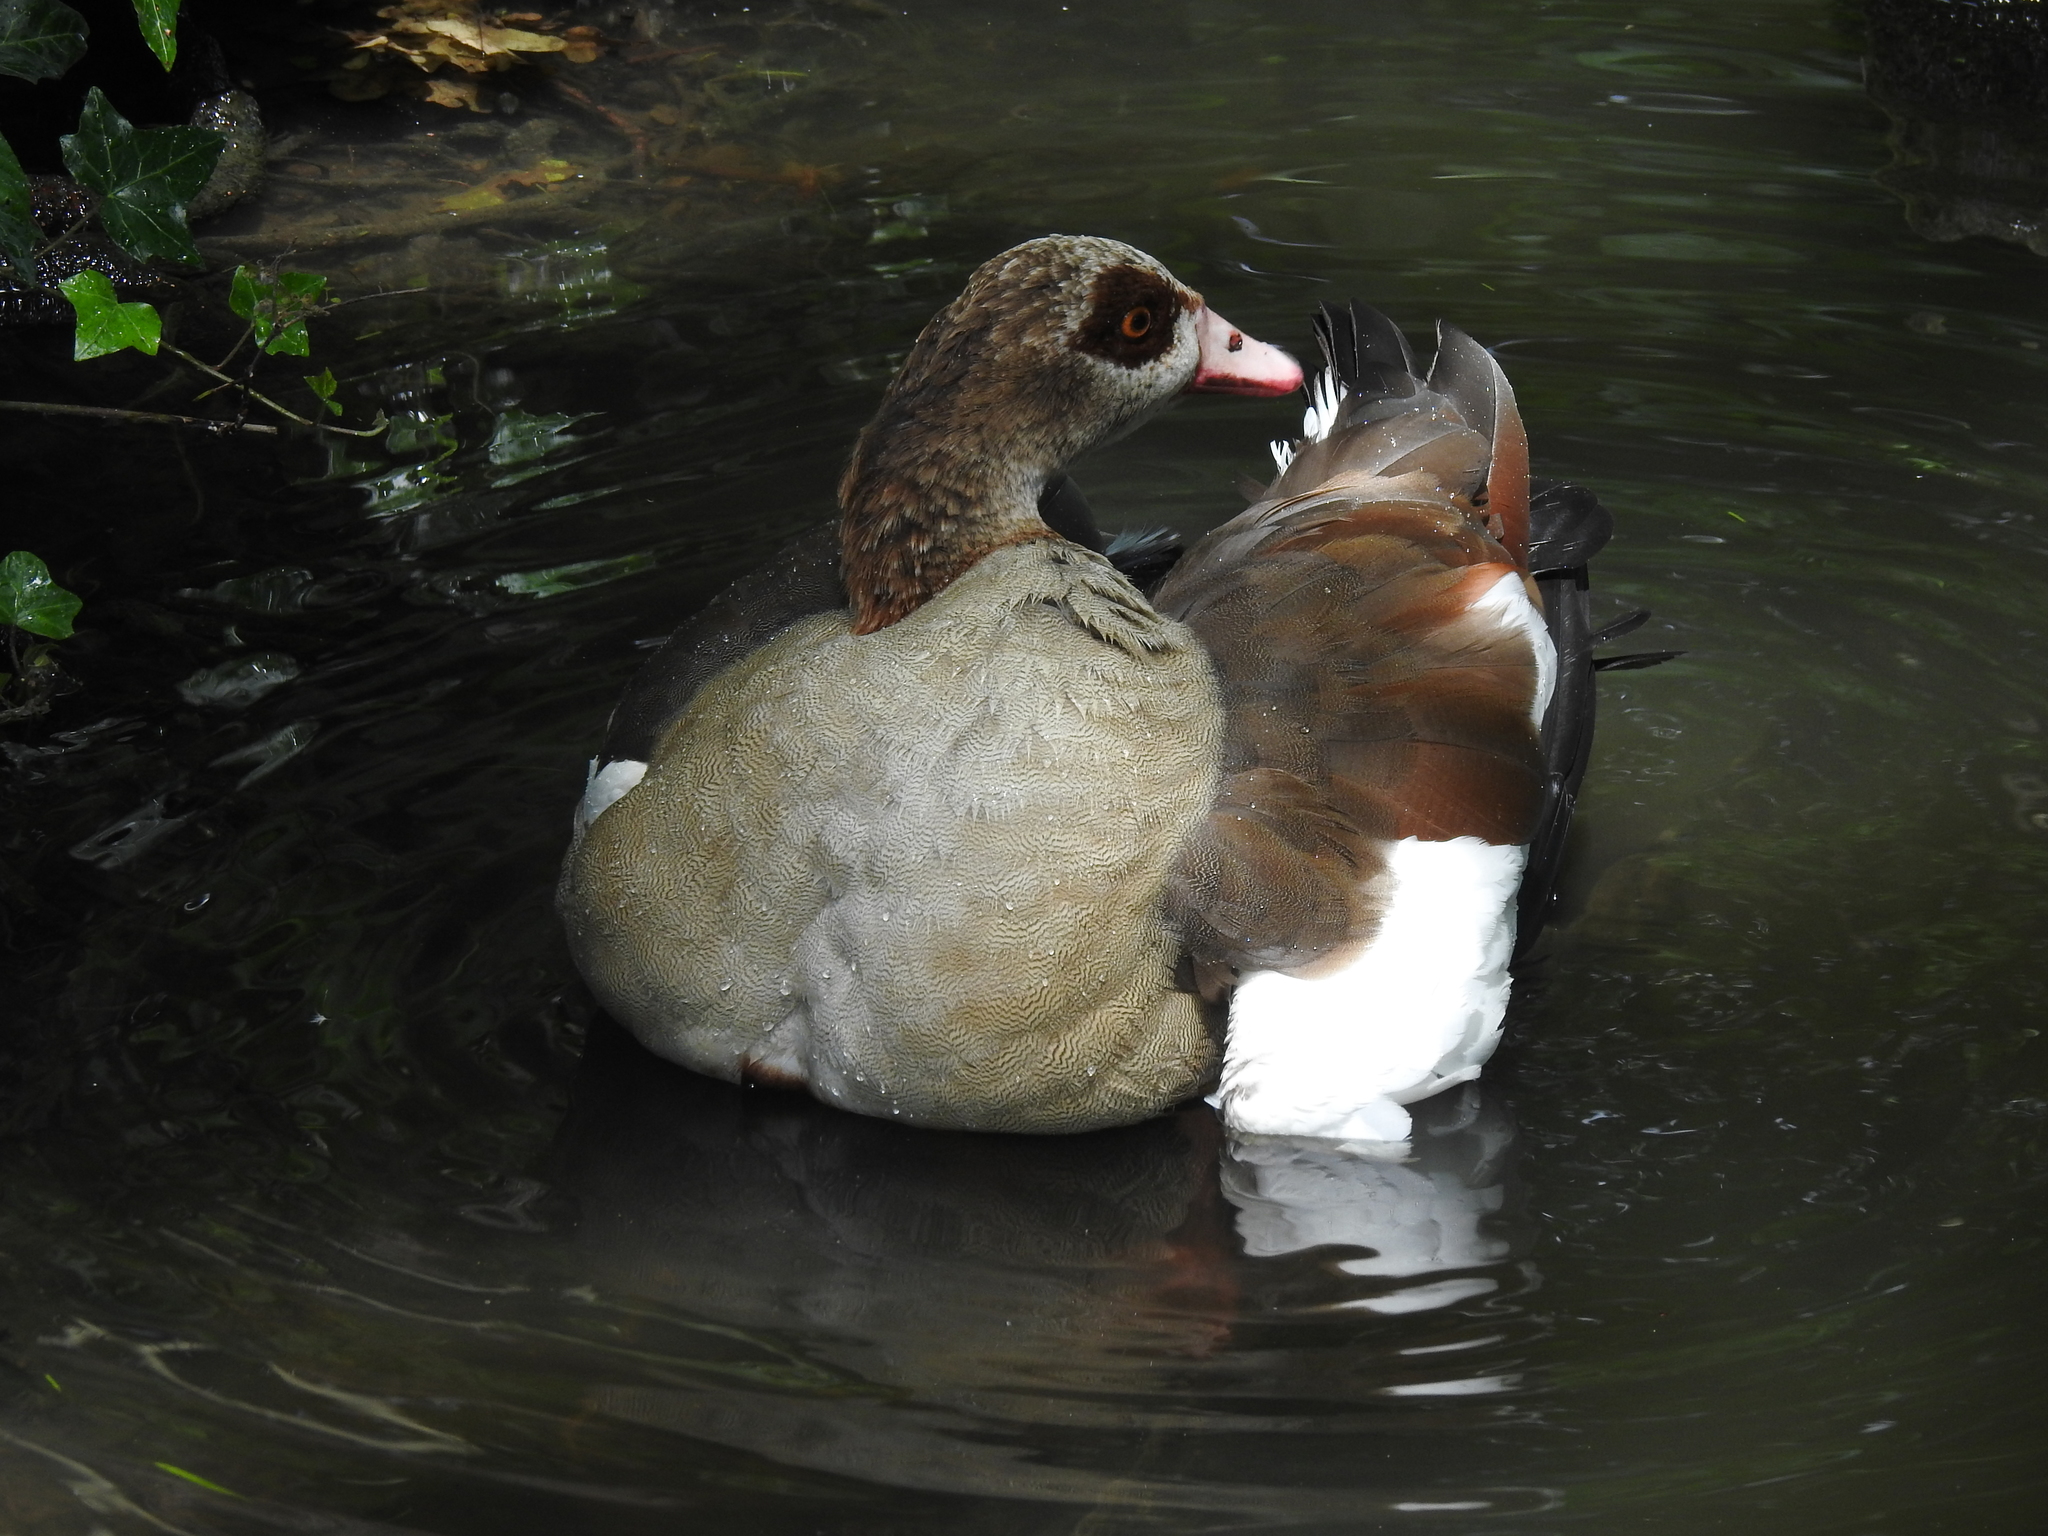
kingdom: Animalia
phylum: Chordata
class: Aves
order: Anseriformes
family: Anatidae
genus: Alopochen
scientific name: Alopochen aegyptiaca
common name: Egyptian goose
